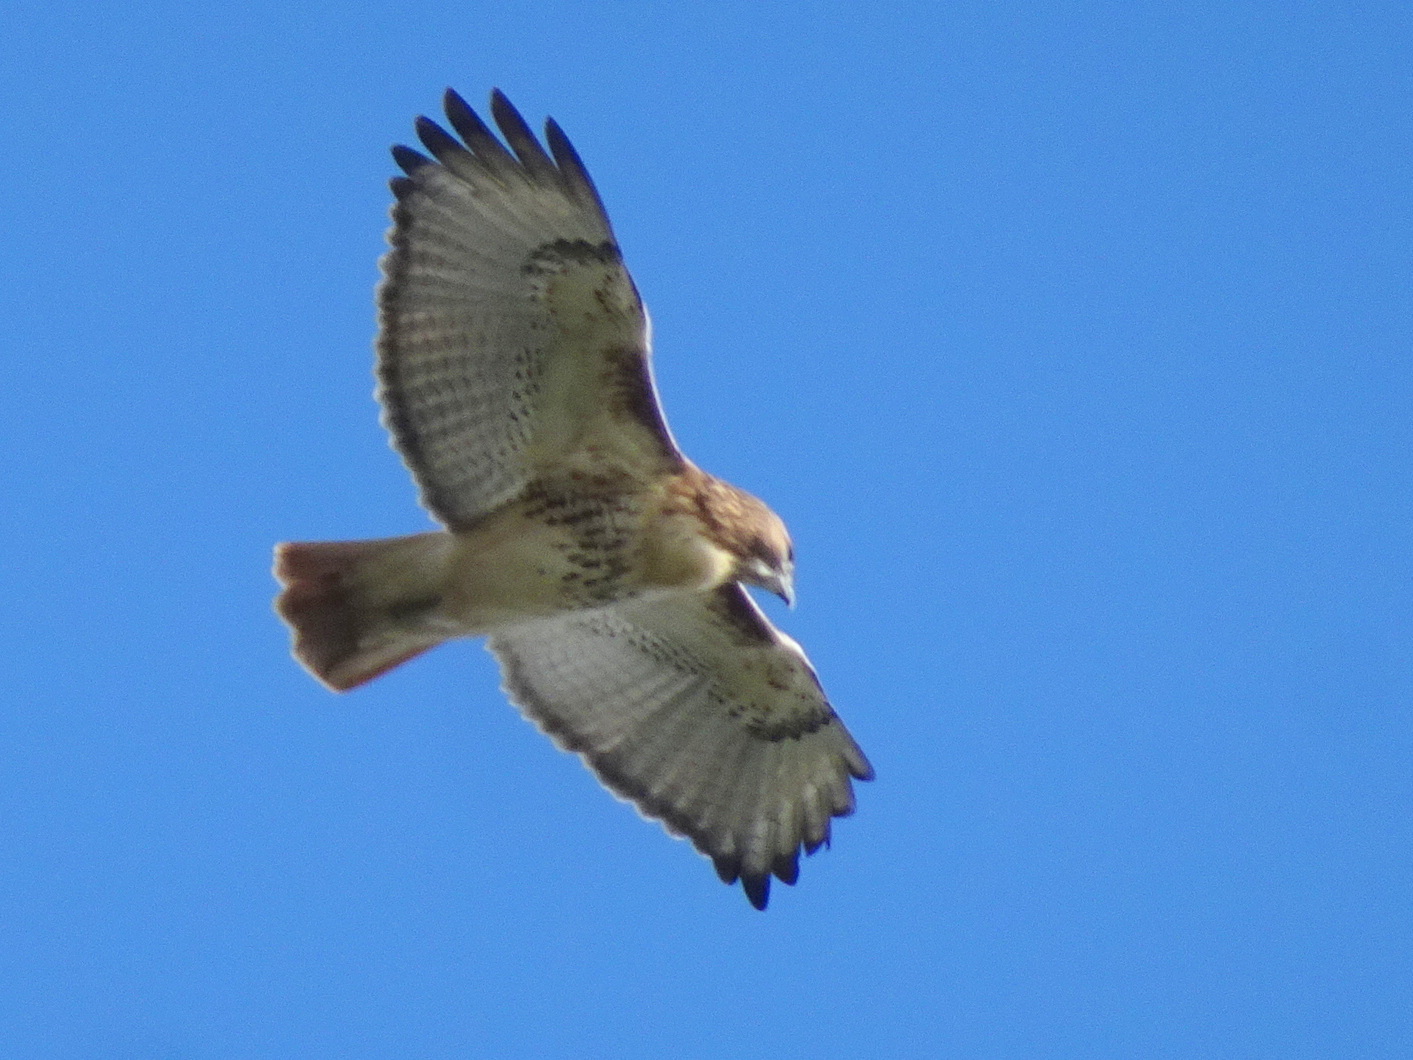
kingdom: Animalia
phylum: Chordata
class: Aves
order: Accipitriformes
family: Accipitridae
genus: Buteo
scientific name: Buteo jamaicensis
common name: Red-tailed hawk
